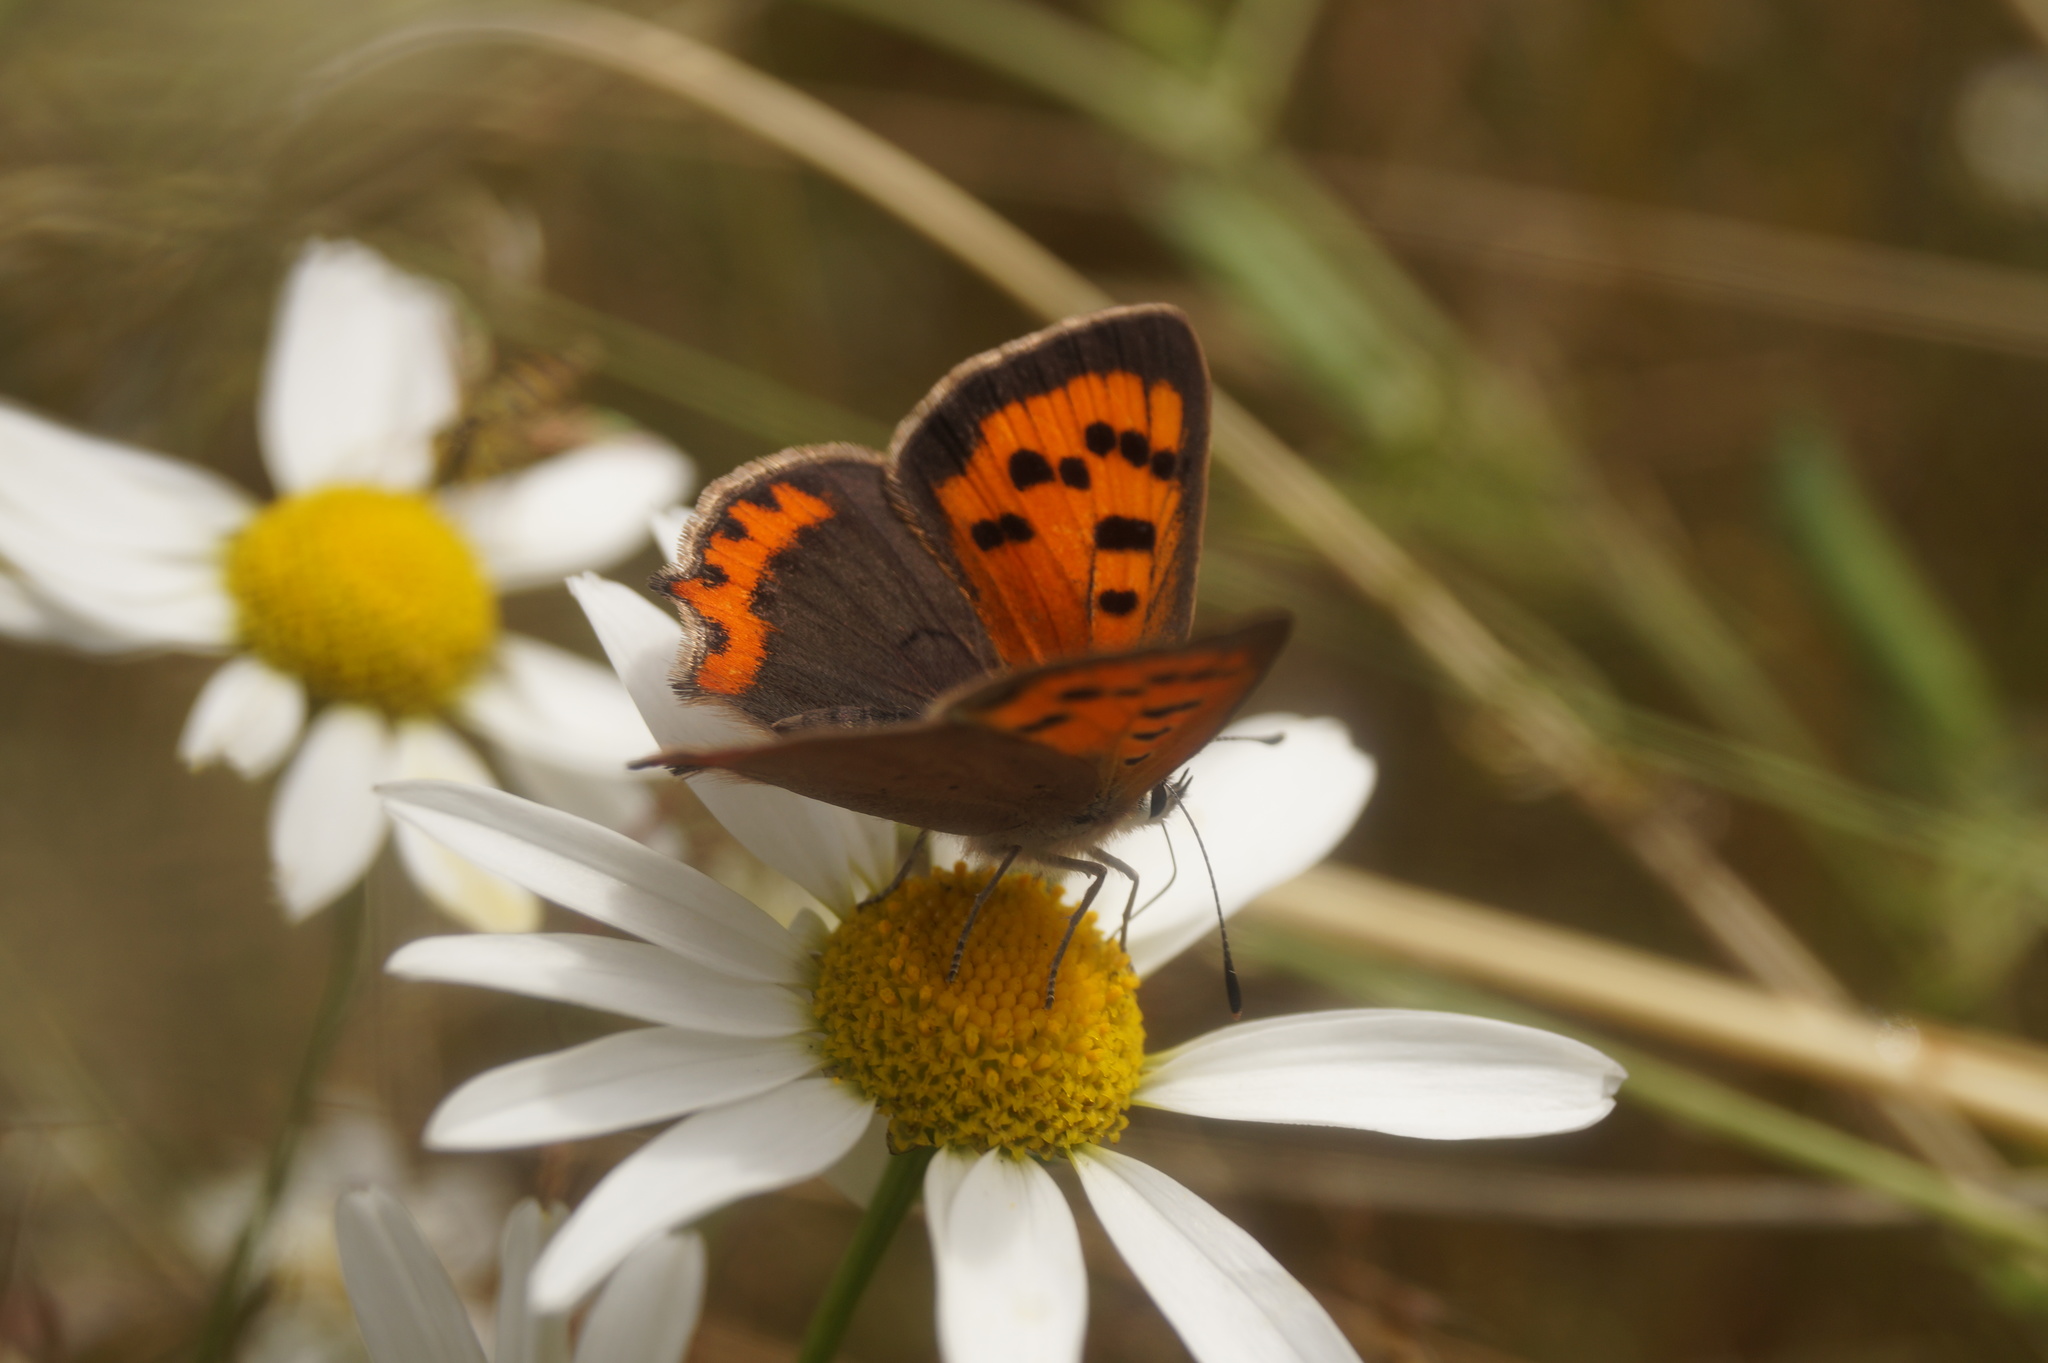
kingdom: Animalia
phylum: Arthropoda
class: Insecta
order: Lepidoptera
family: Lycaenidae
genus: Lycaena
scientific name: Lycaena phlaeas
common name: Small copper
